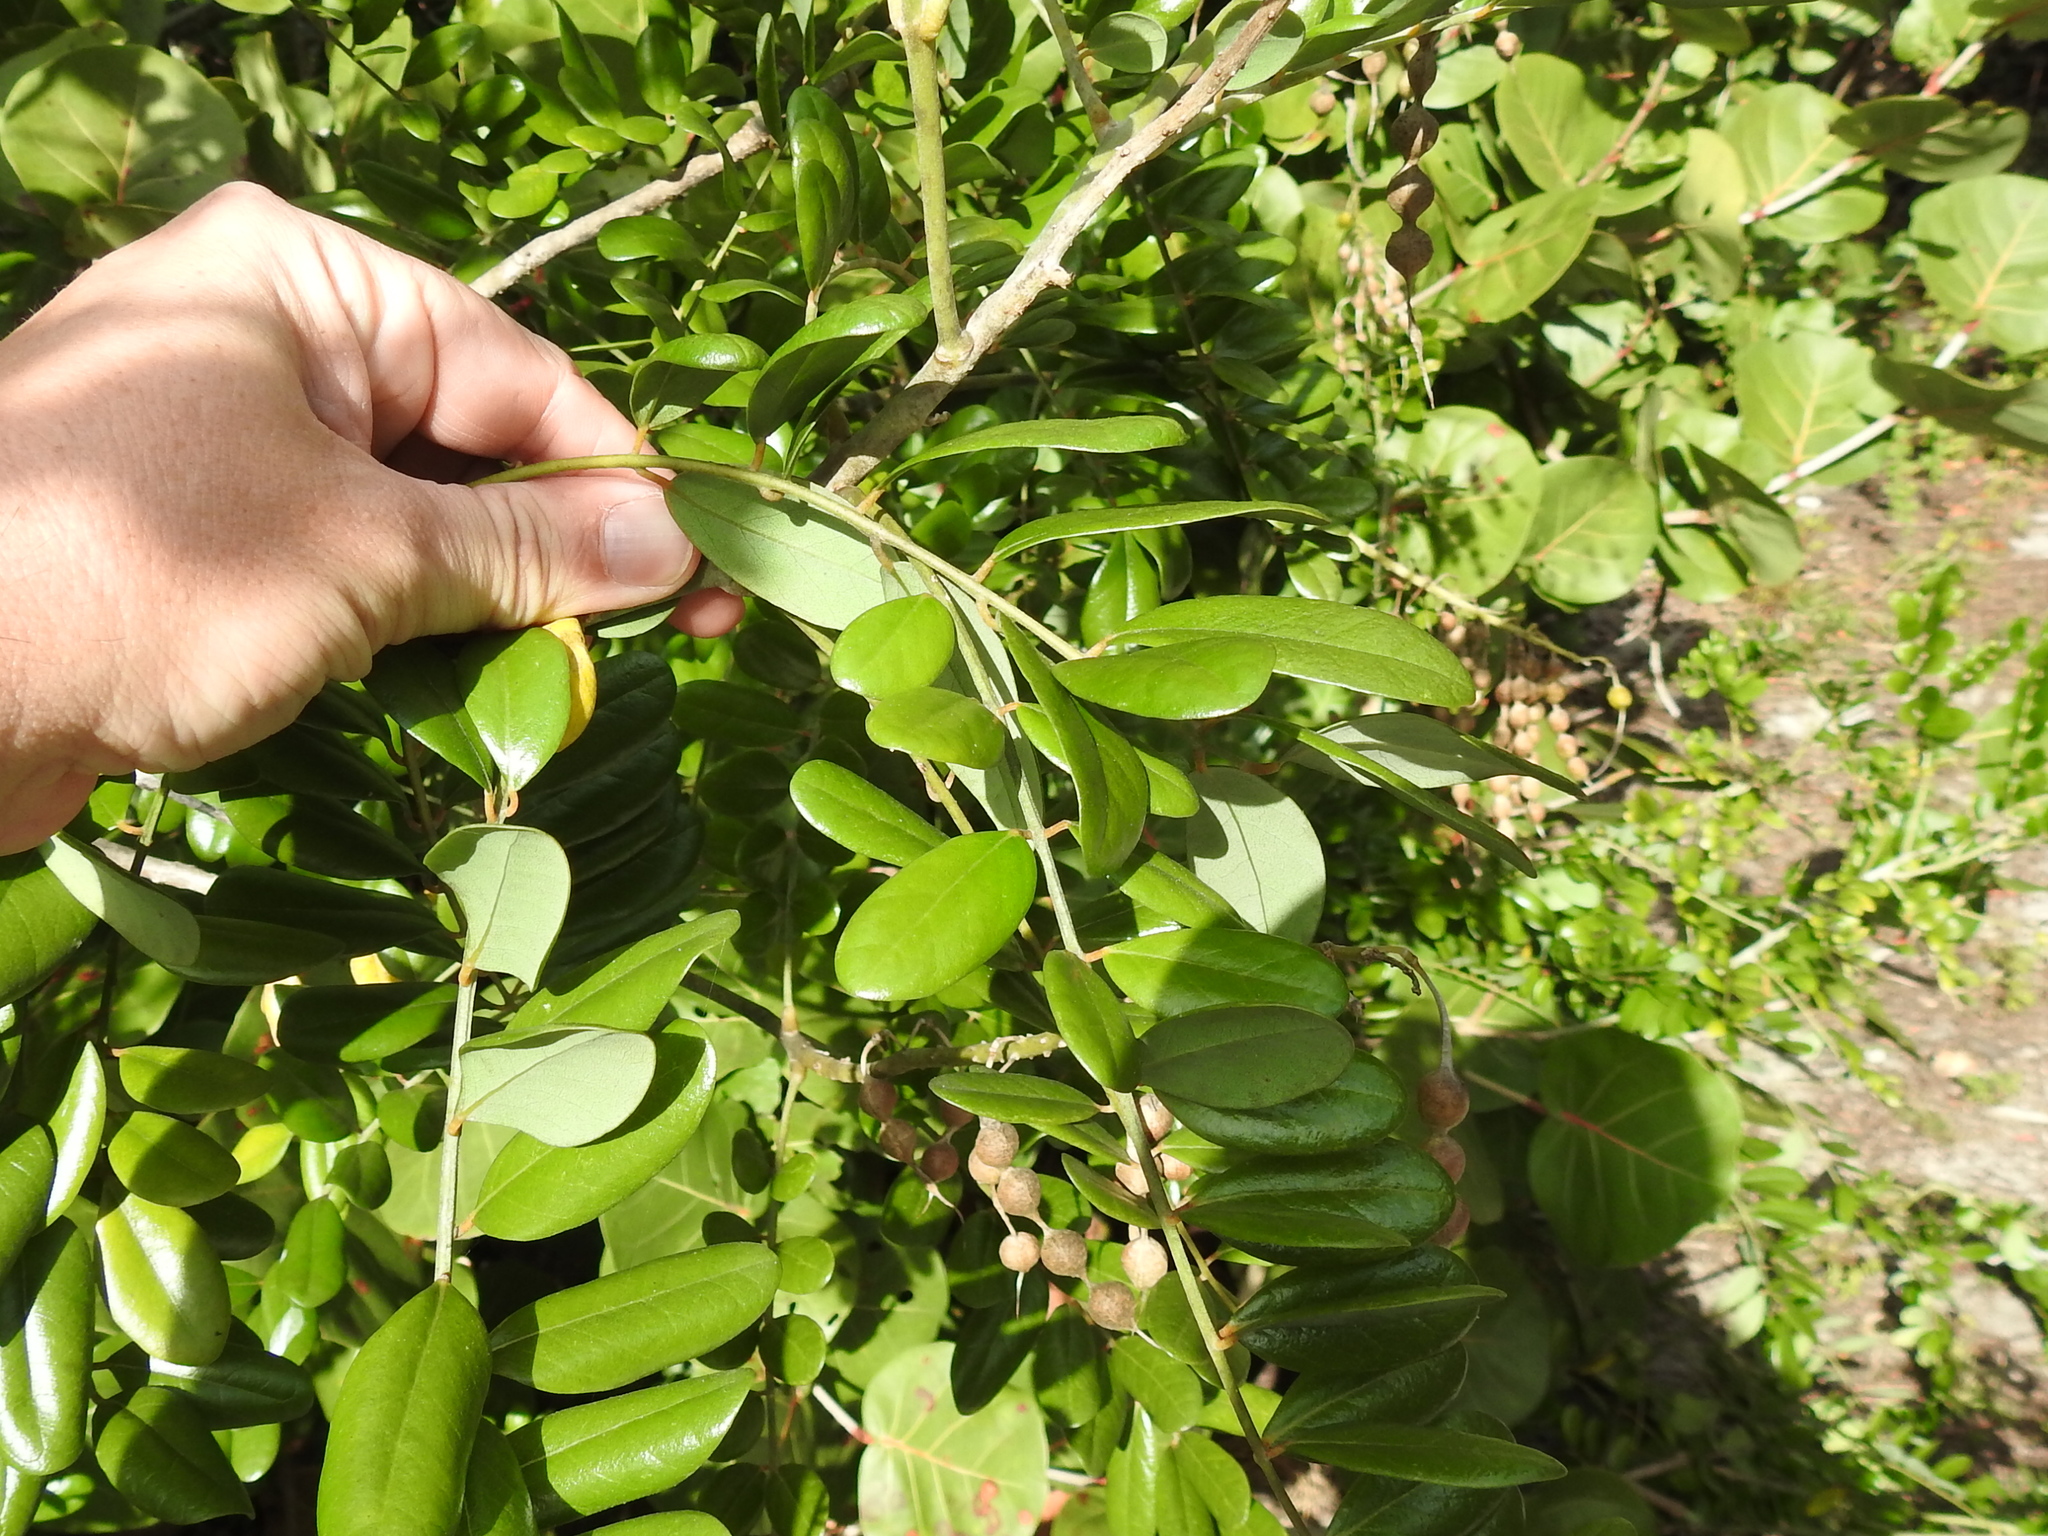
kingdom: Plantae
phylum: Tracheophyta
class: Magnoliopsida
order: Fabales
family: Fabaceae
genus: Sophora
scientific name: Sophora tomentosa
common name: Yellow necklacepod
